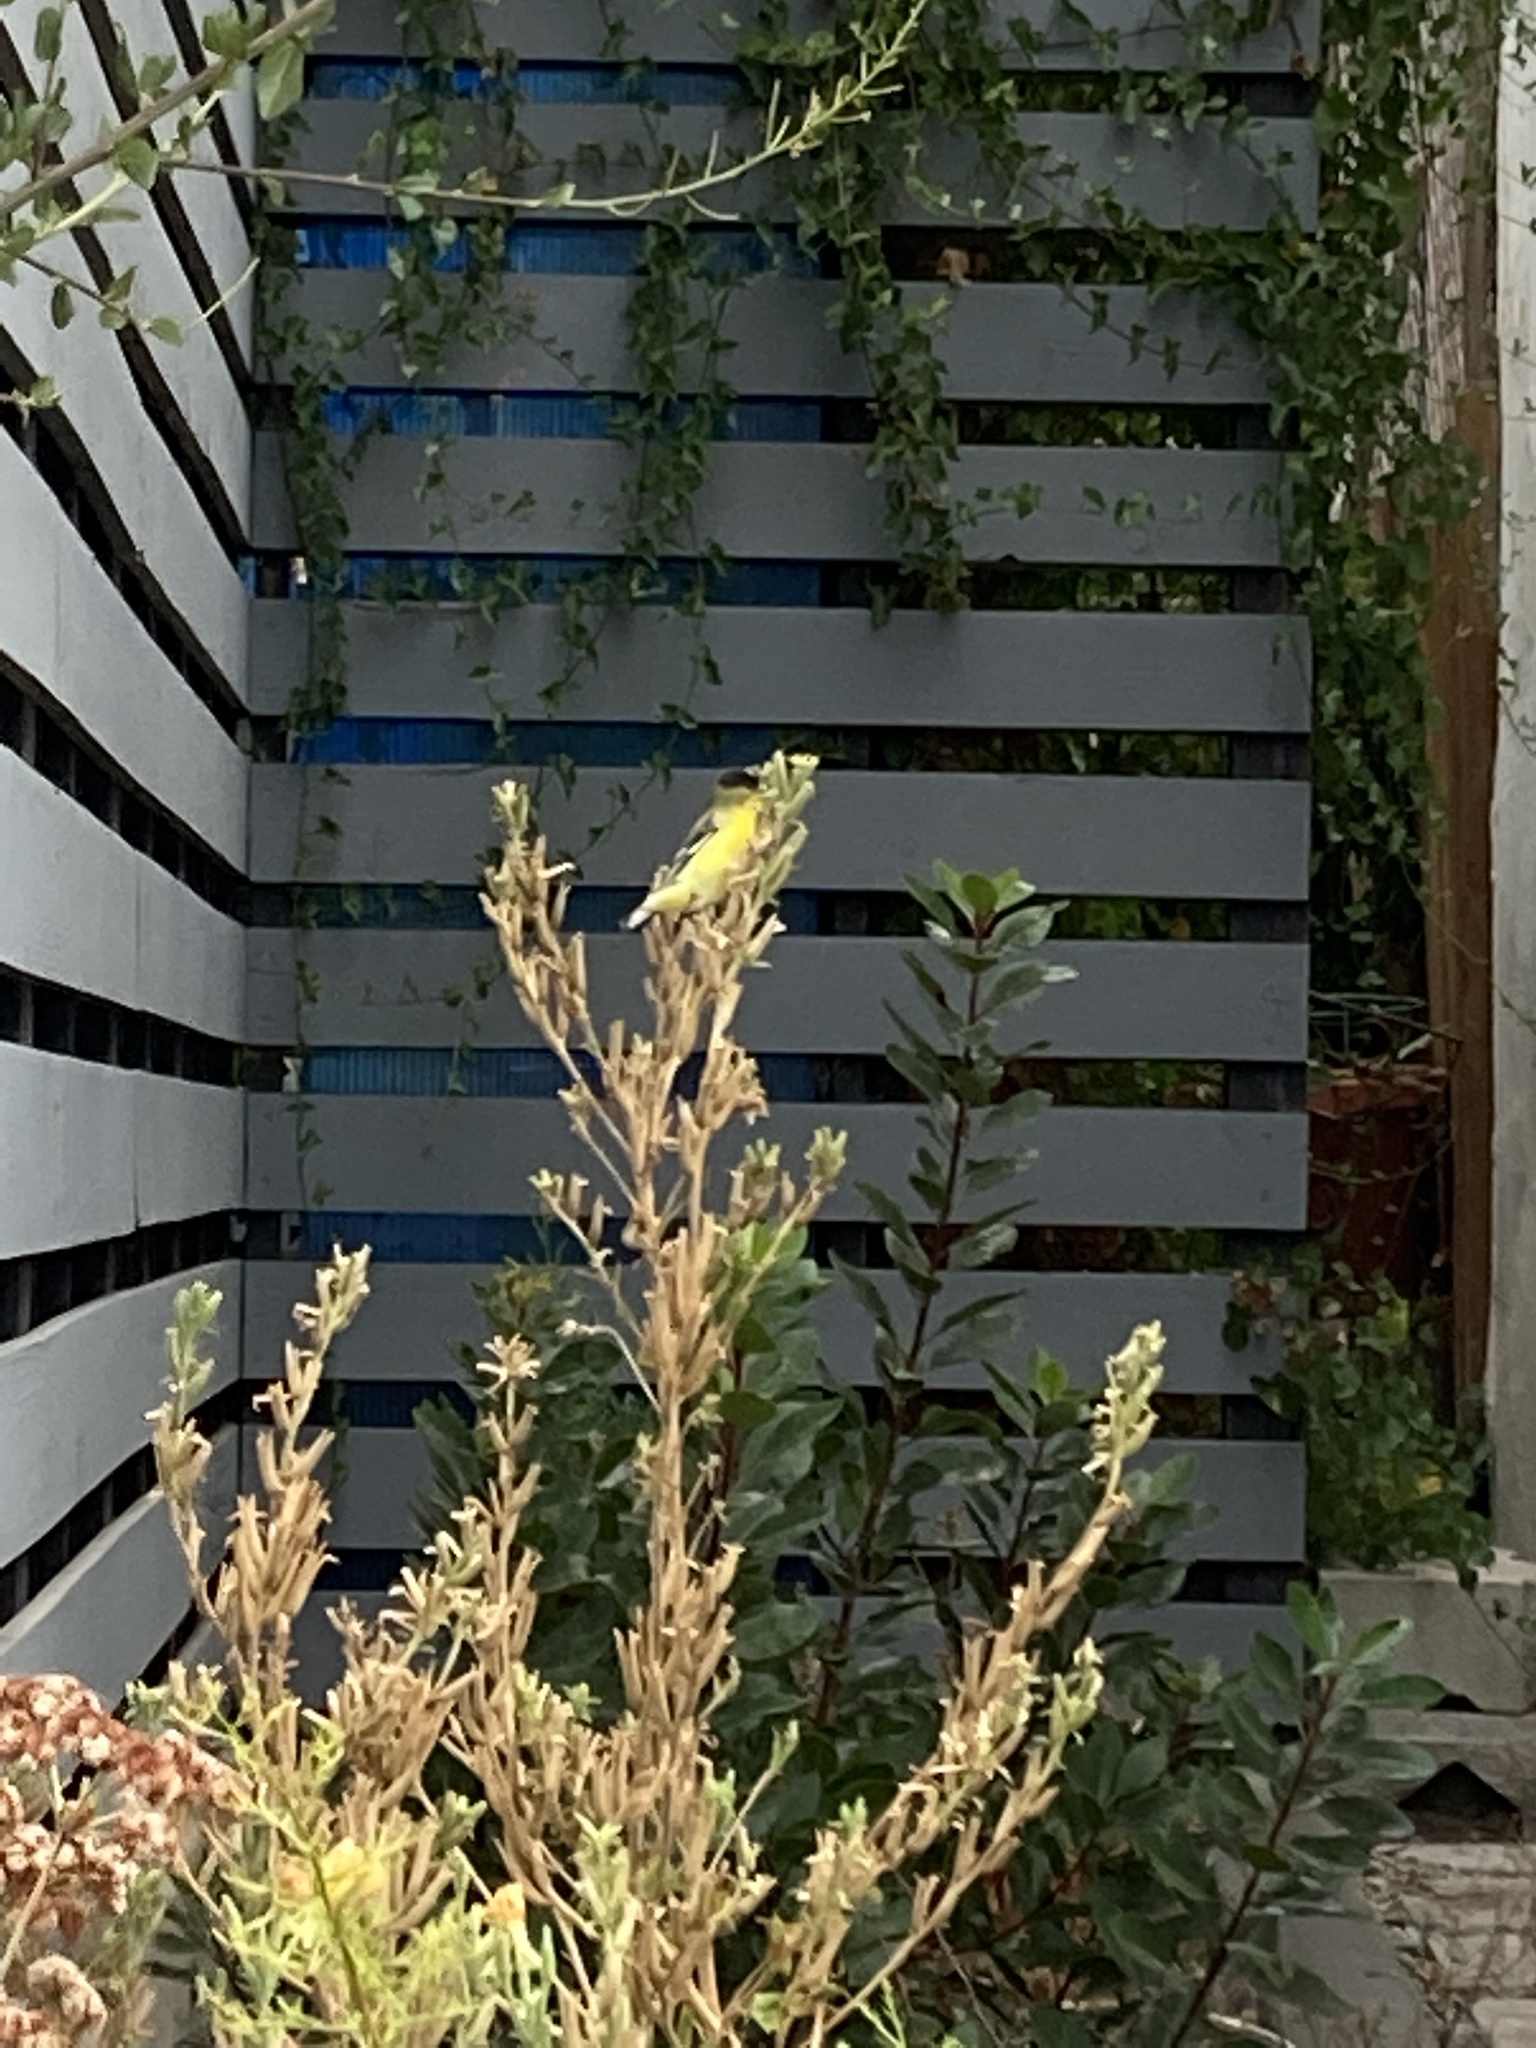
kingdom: Animalia
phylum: Chordata
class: Aves
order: Passeriformes
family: Fringillidae
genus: Spinus
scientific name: Spinus psaltria
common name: Lesser goldfinch
